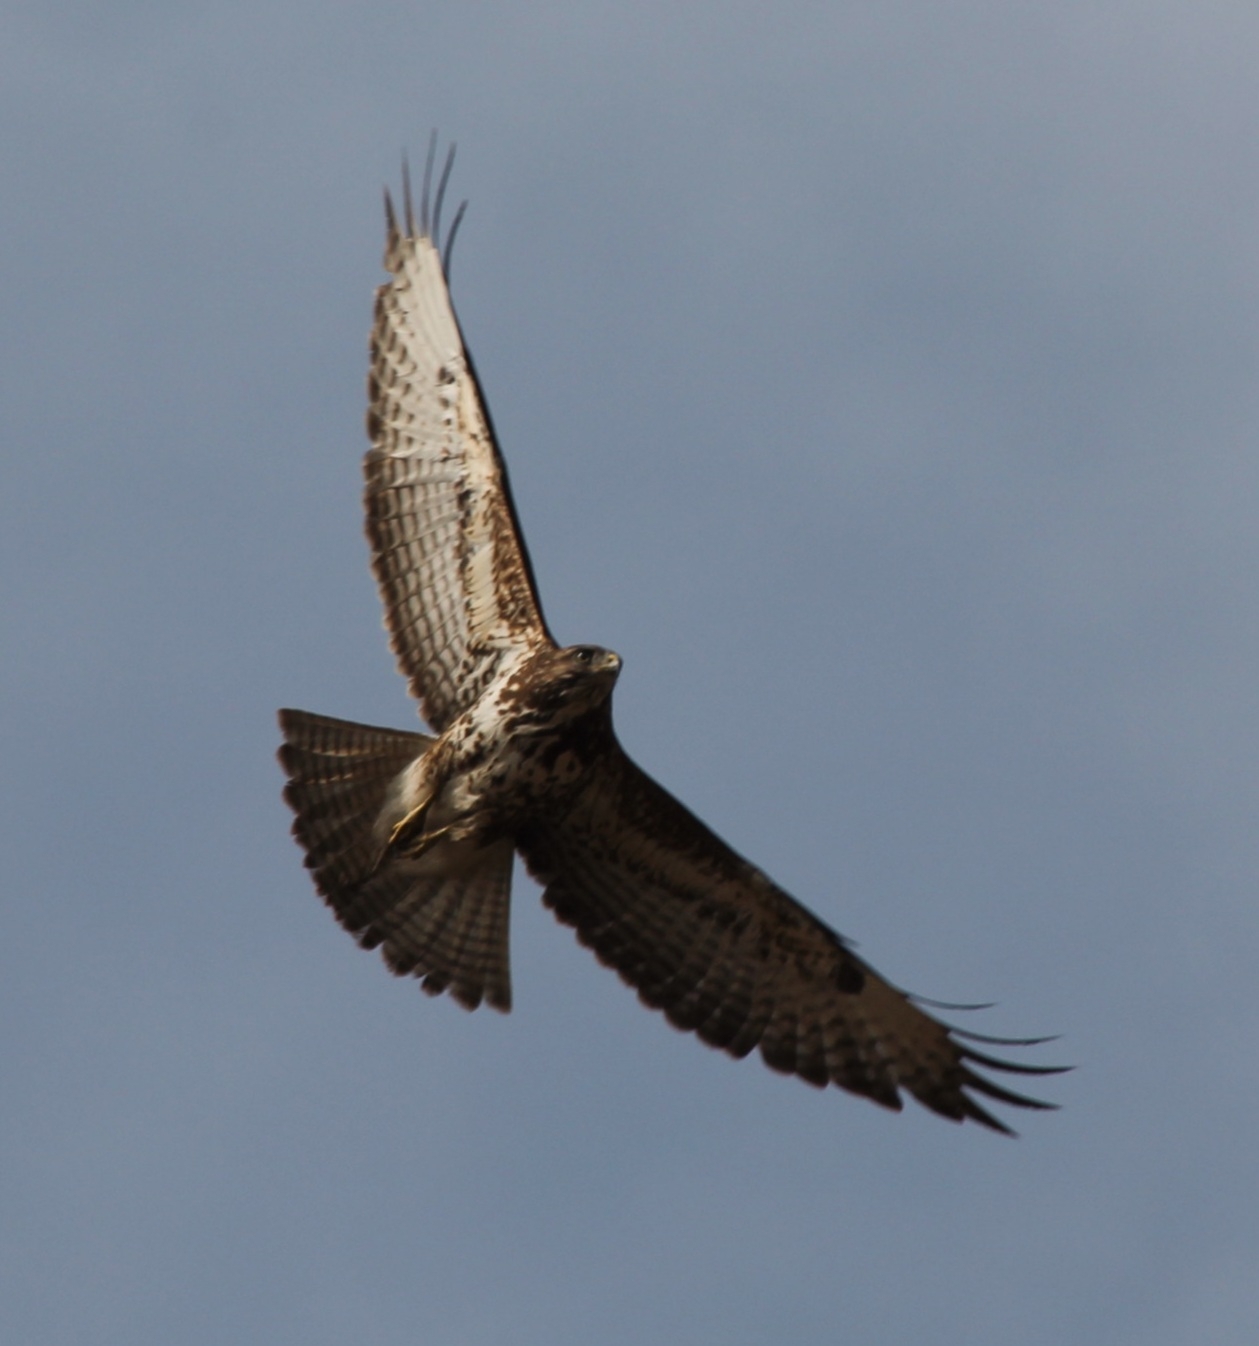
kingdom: Animalia
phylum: Chordata
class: Aves
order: Accipitriformes
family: Accipitridae
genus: Buteo
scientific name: Buteo buteo
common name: Common buzzard
